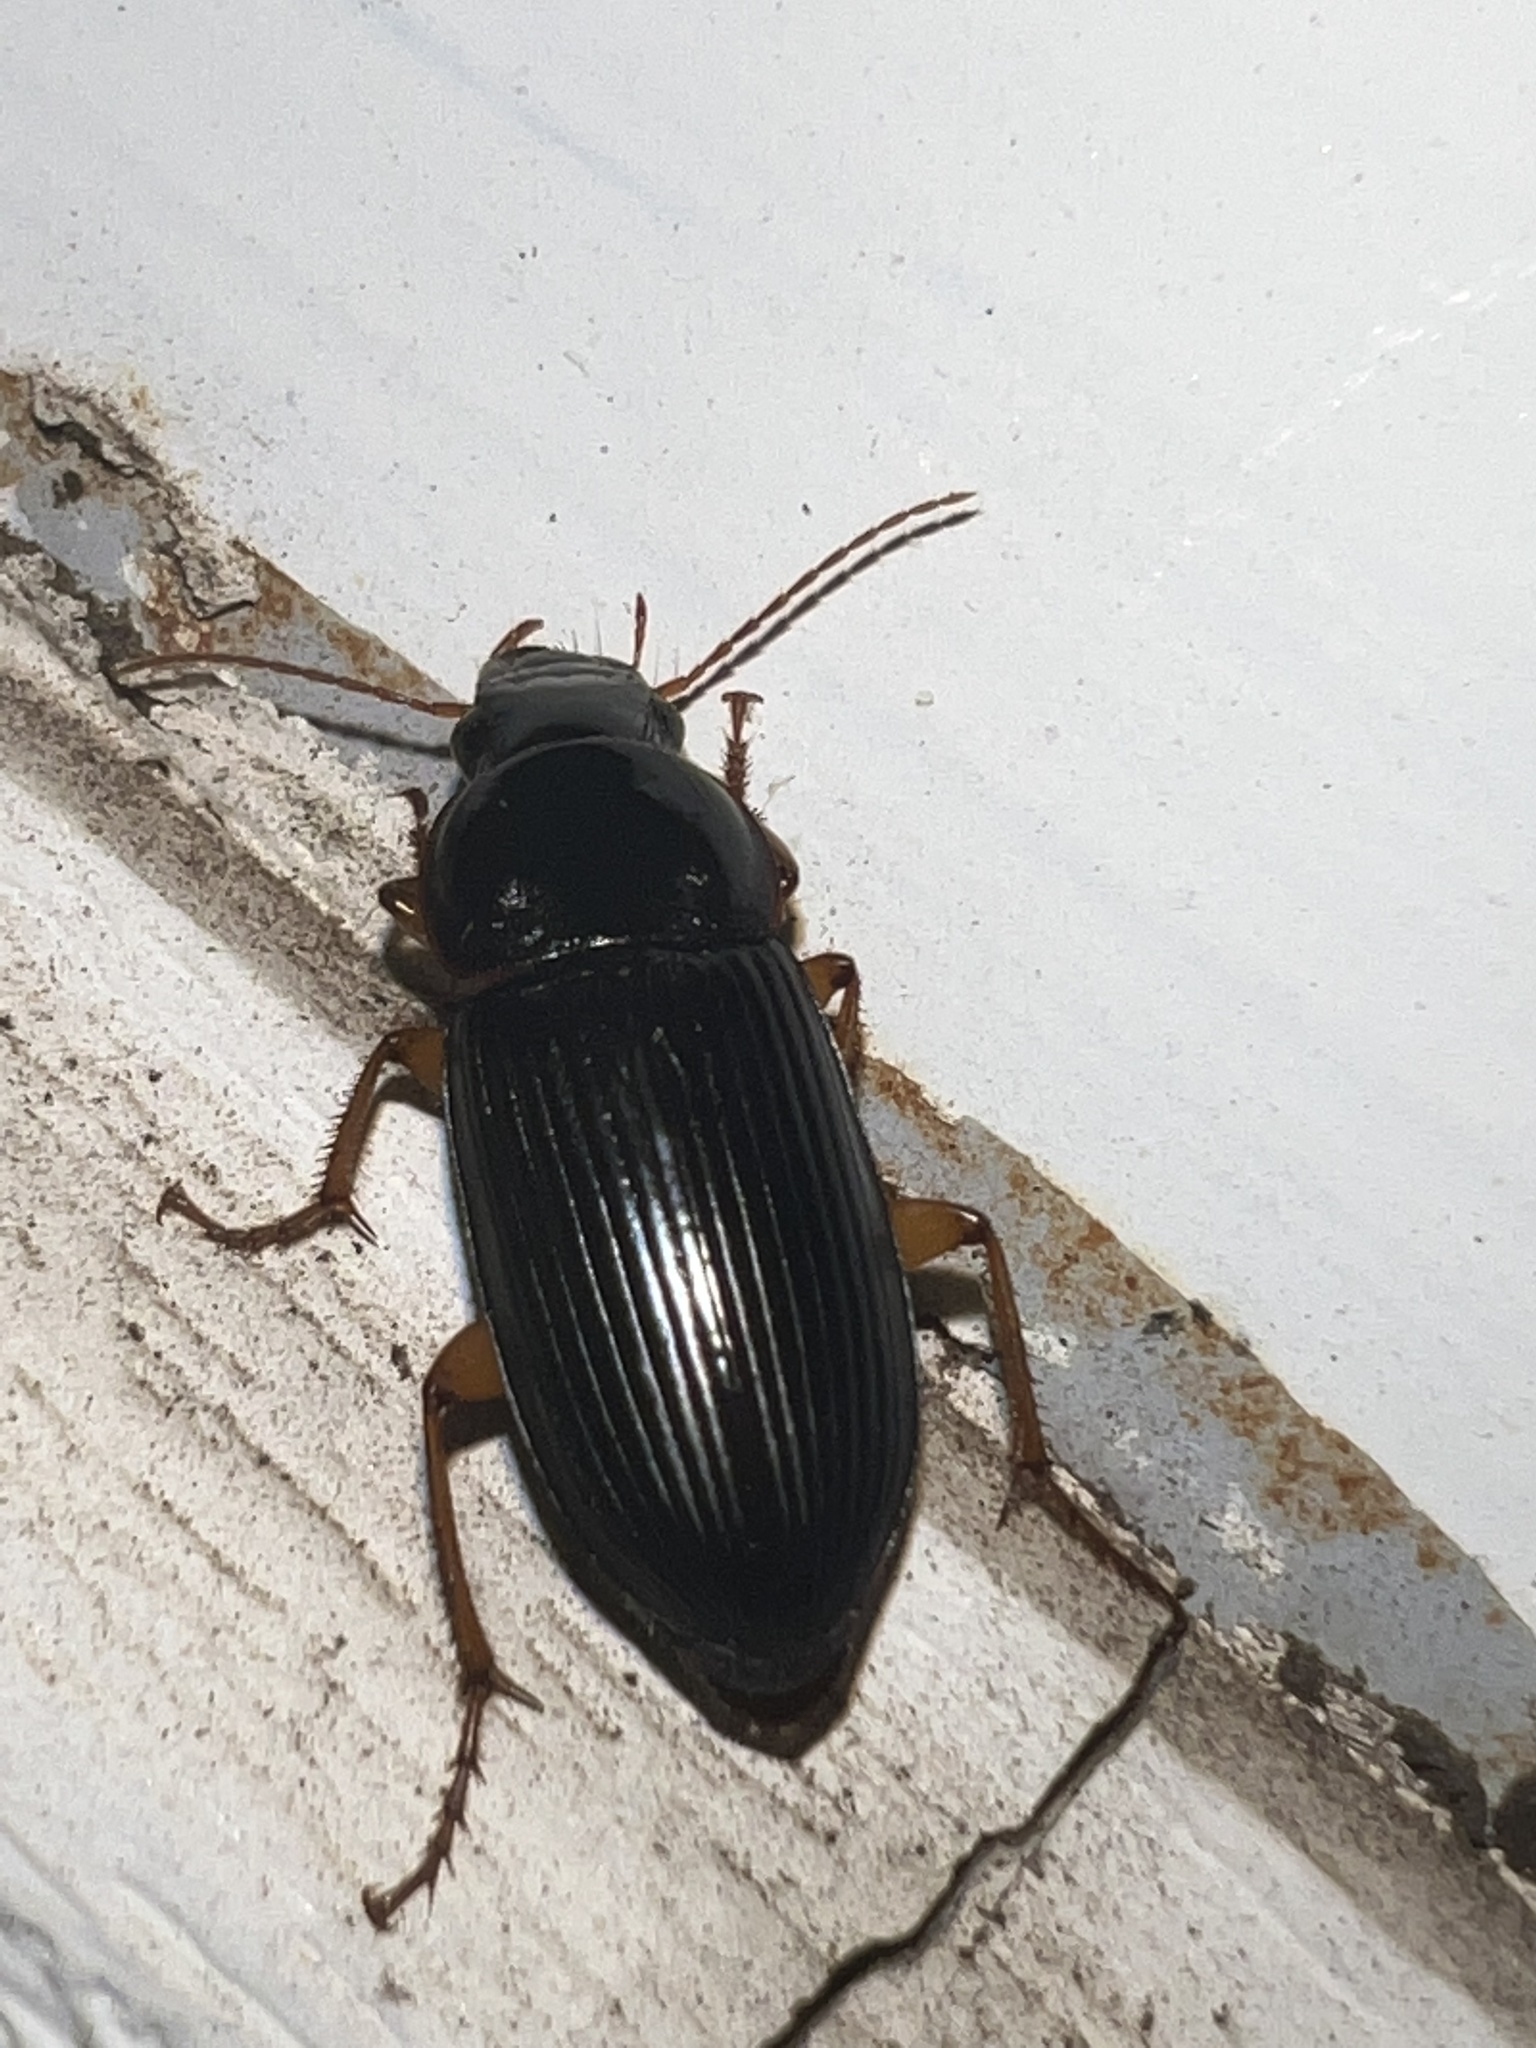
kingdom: Animalia
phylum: Arthropoda
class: Insecta
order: Coleoptera
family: Carabidae
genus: Harpalus
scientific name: Harpalus pensylvanicus
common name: Pennsylvania dingy ground beetle
